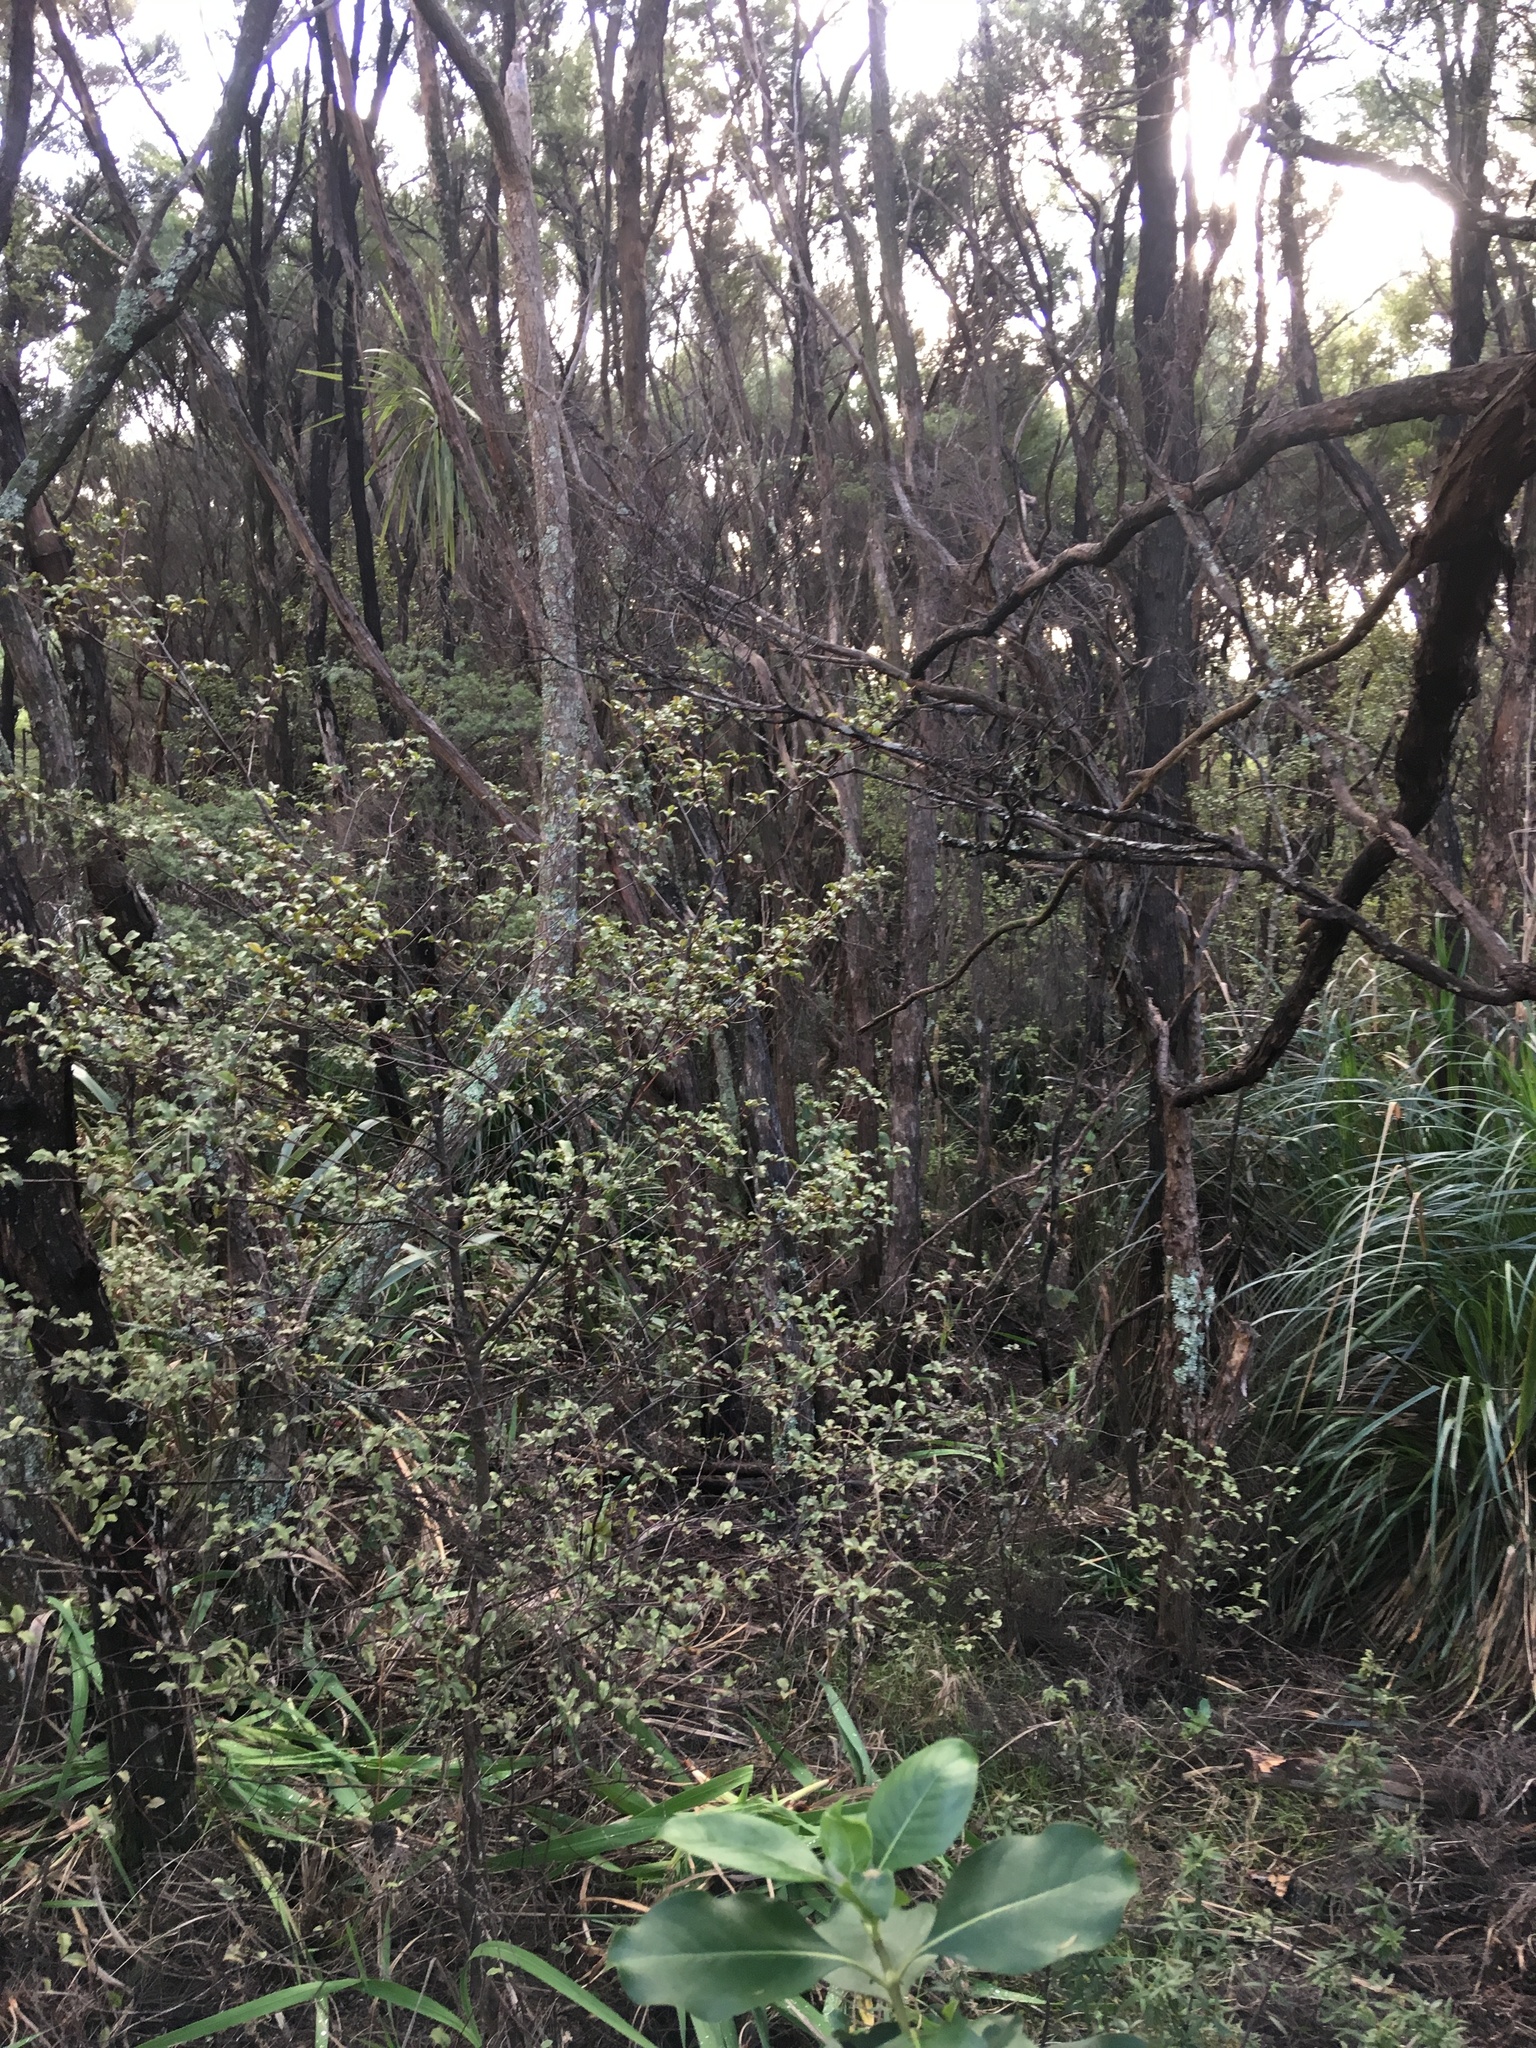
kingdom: Plantae
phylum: Tracheophyta
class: Magnoliopsida
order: Ericales
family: Primulaceae
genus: Myrsine
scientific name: Myrsine australis
